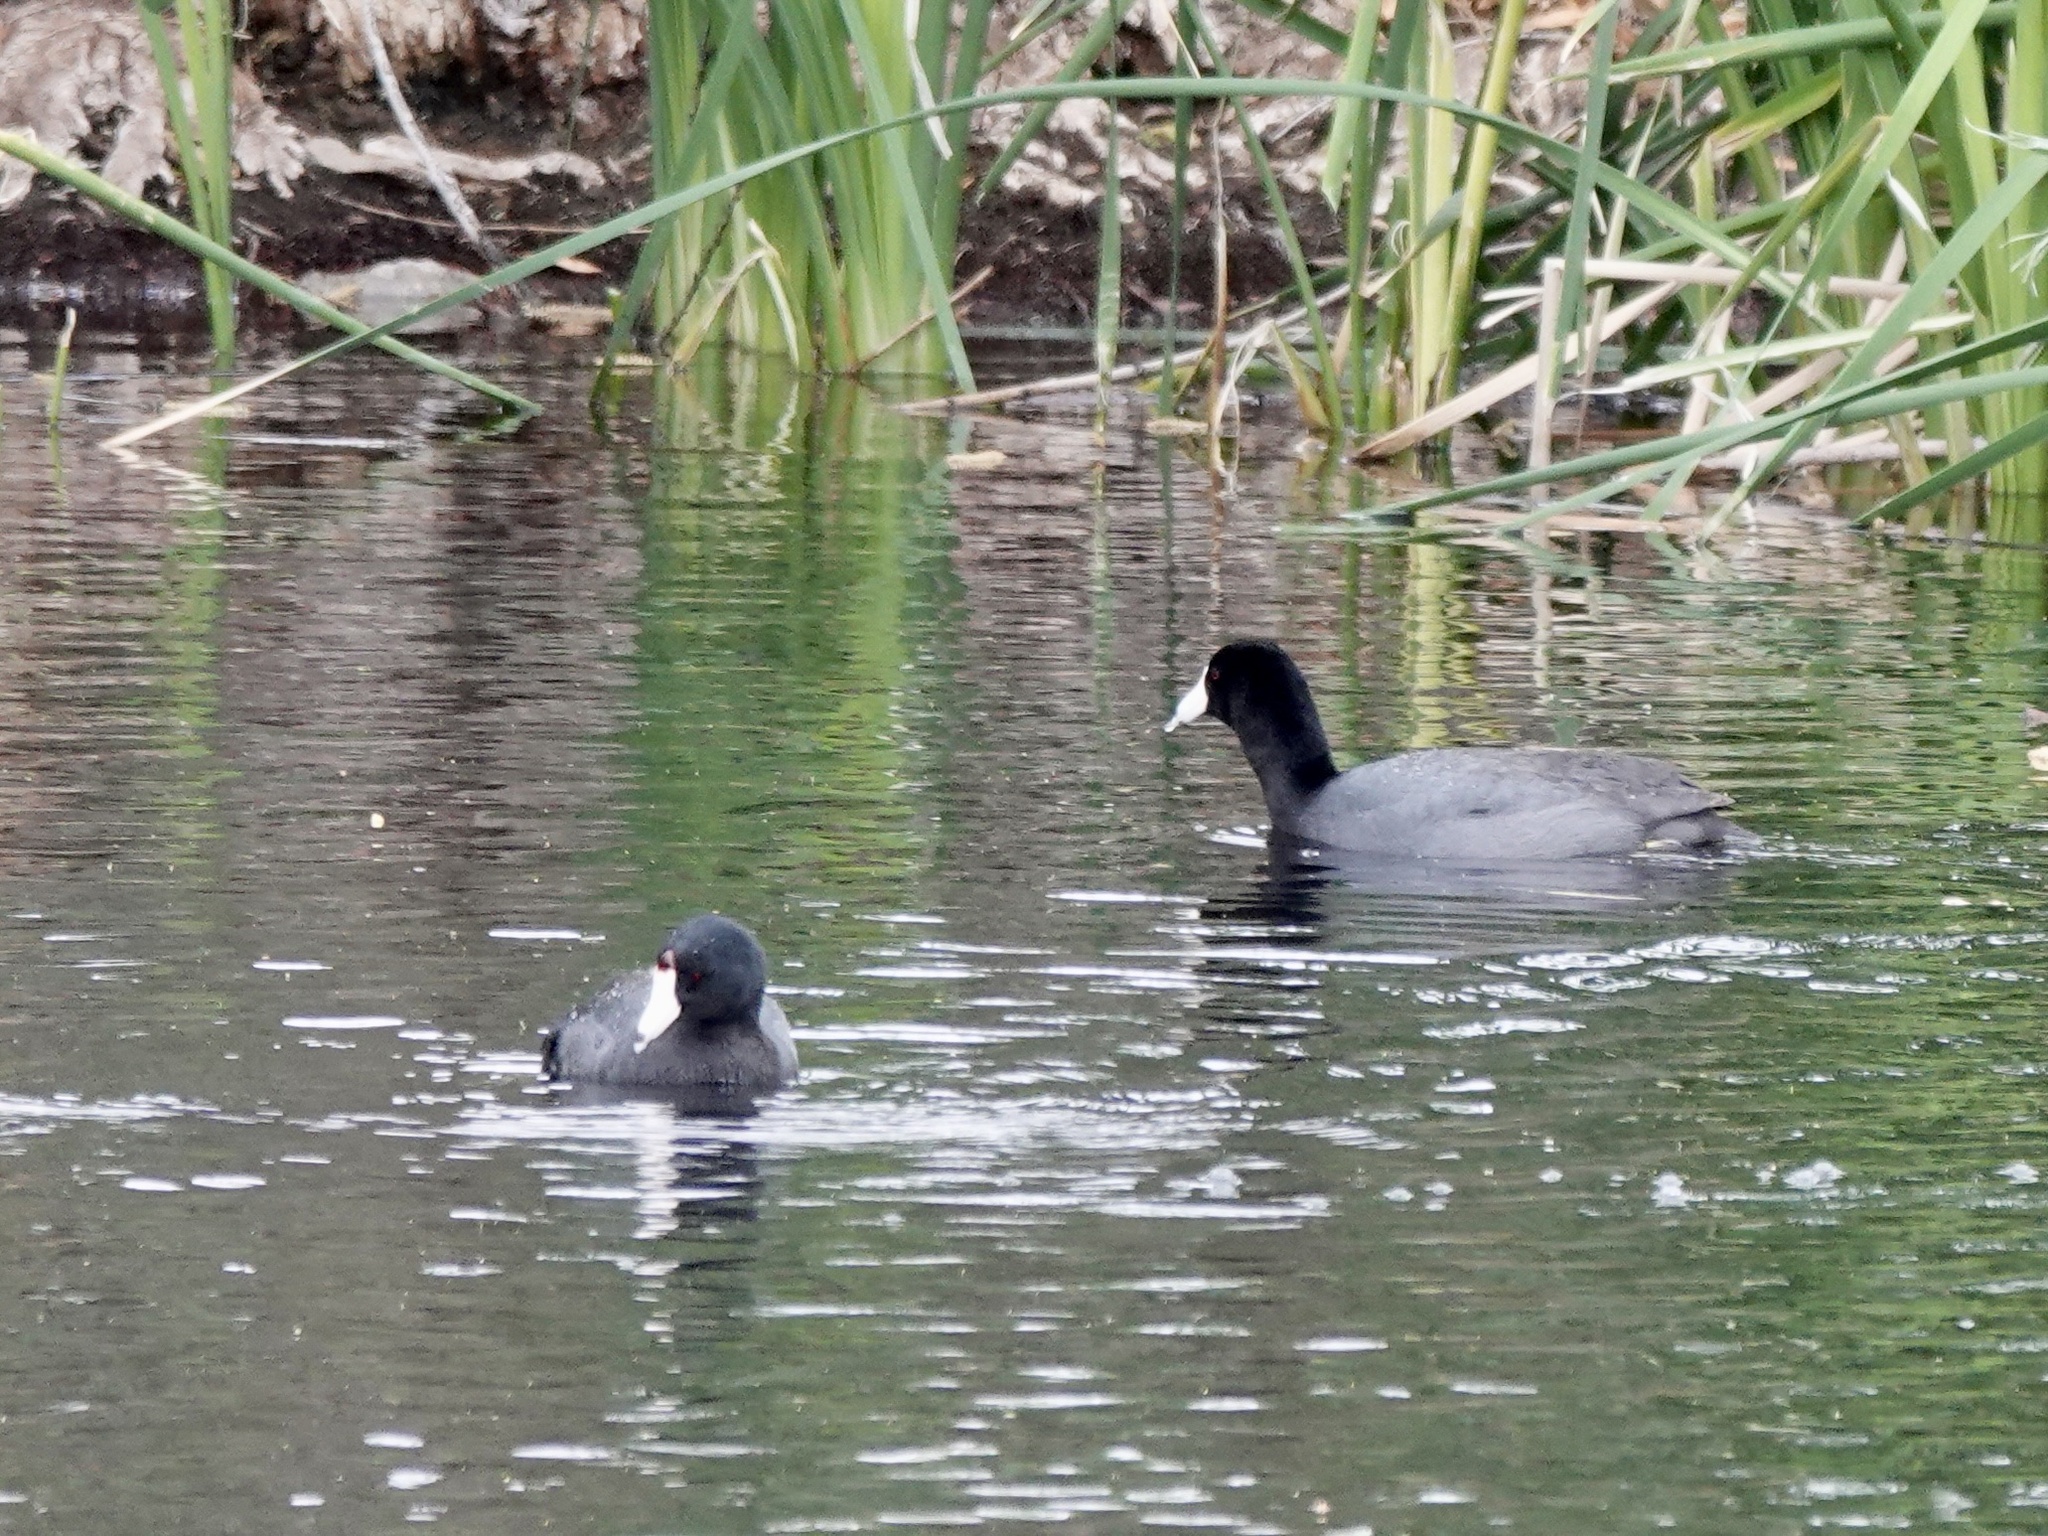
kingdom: Animalia
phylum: Chordata
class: Aves
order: Gruiformes
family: Rallidae
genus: Fulica
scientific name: Fulica americana
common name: American coot
